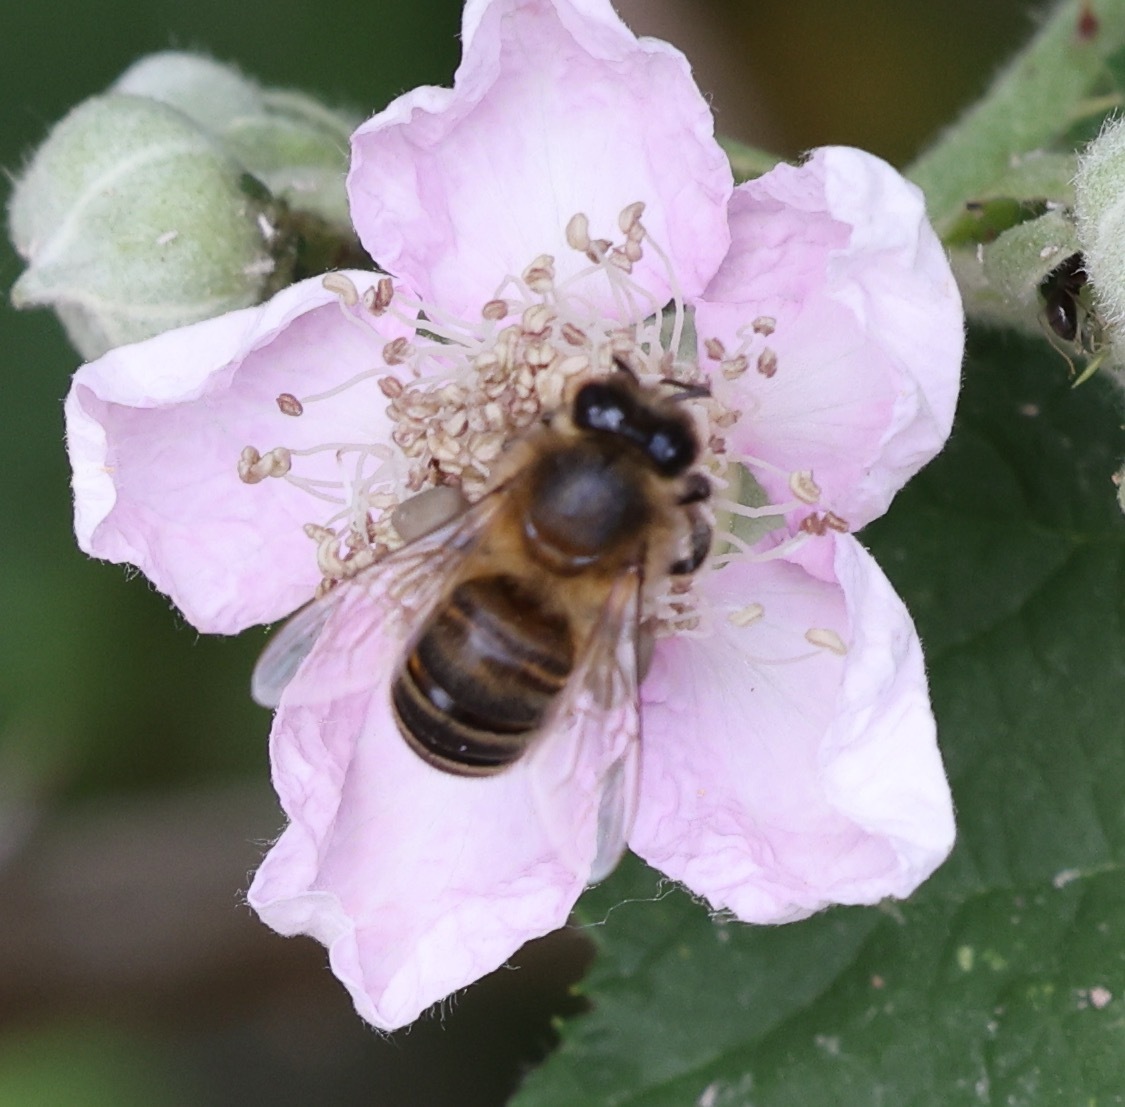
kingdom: Animalia
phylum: Arthropoda
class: Insecta
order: Hymenoptera
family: Apidae
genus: Apis
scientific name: Apis mellifera
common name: Honey bee
